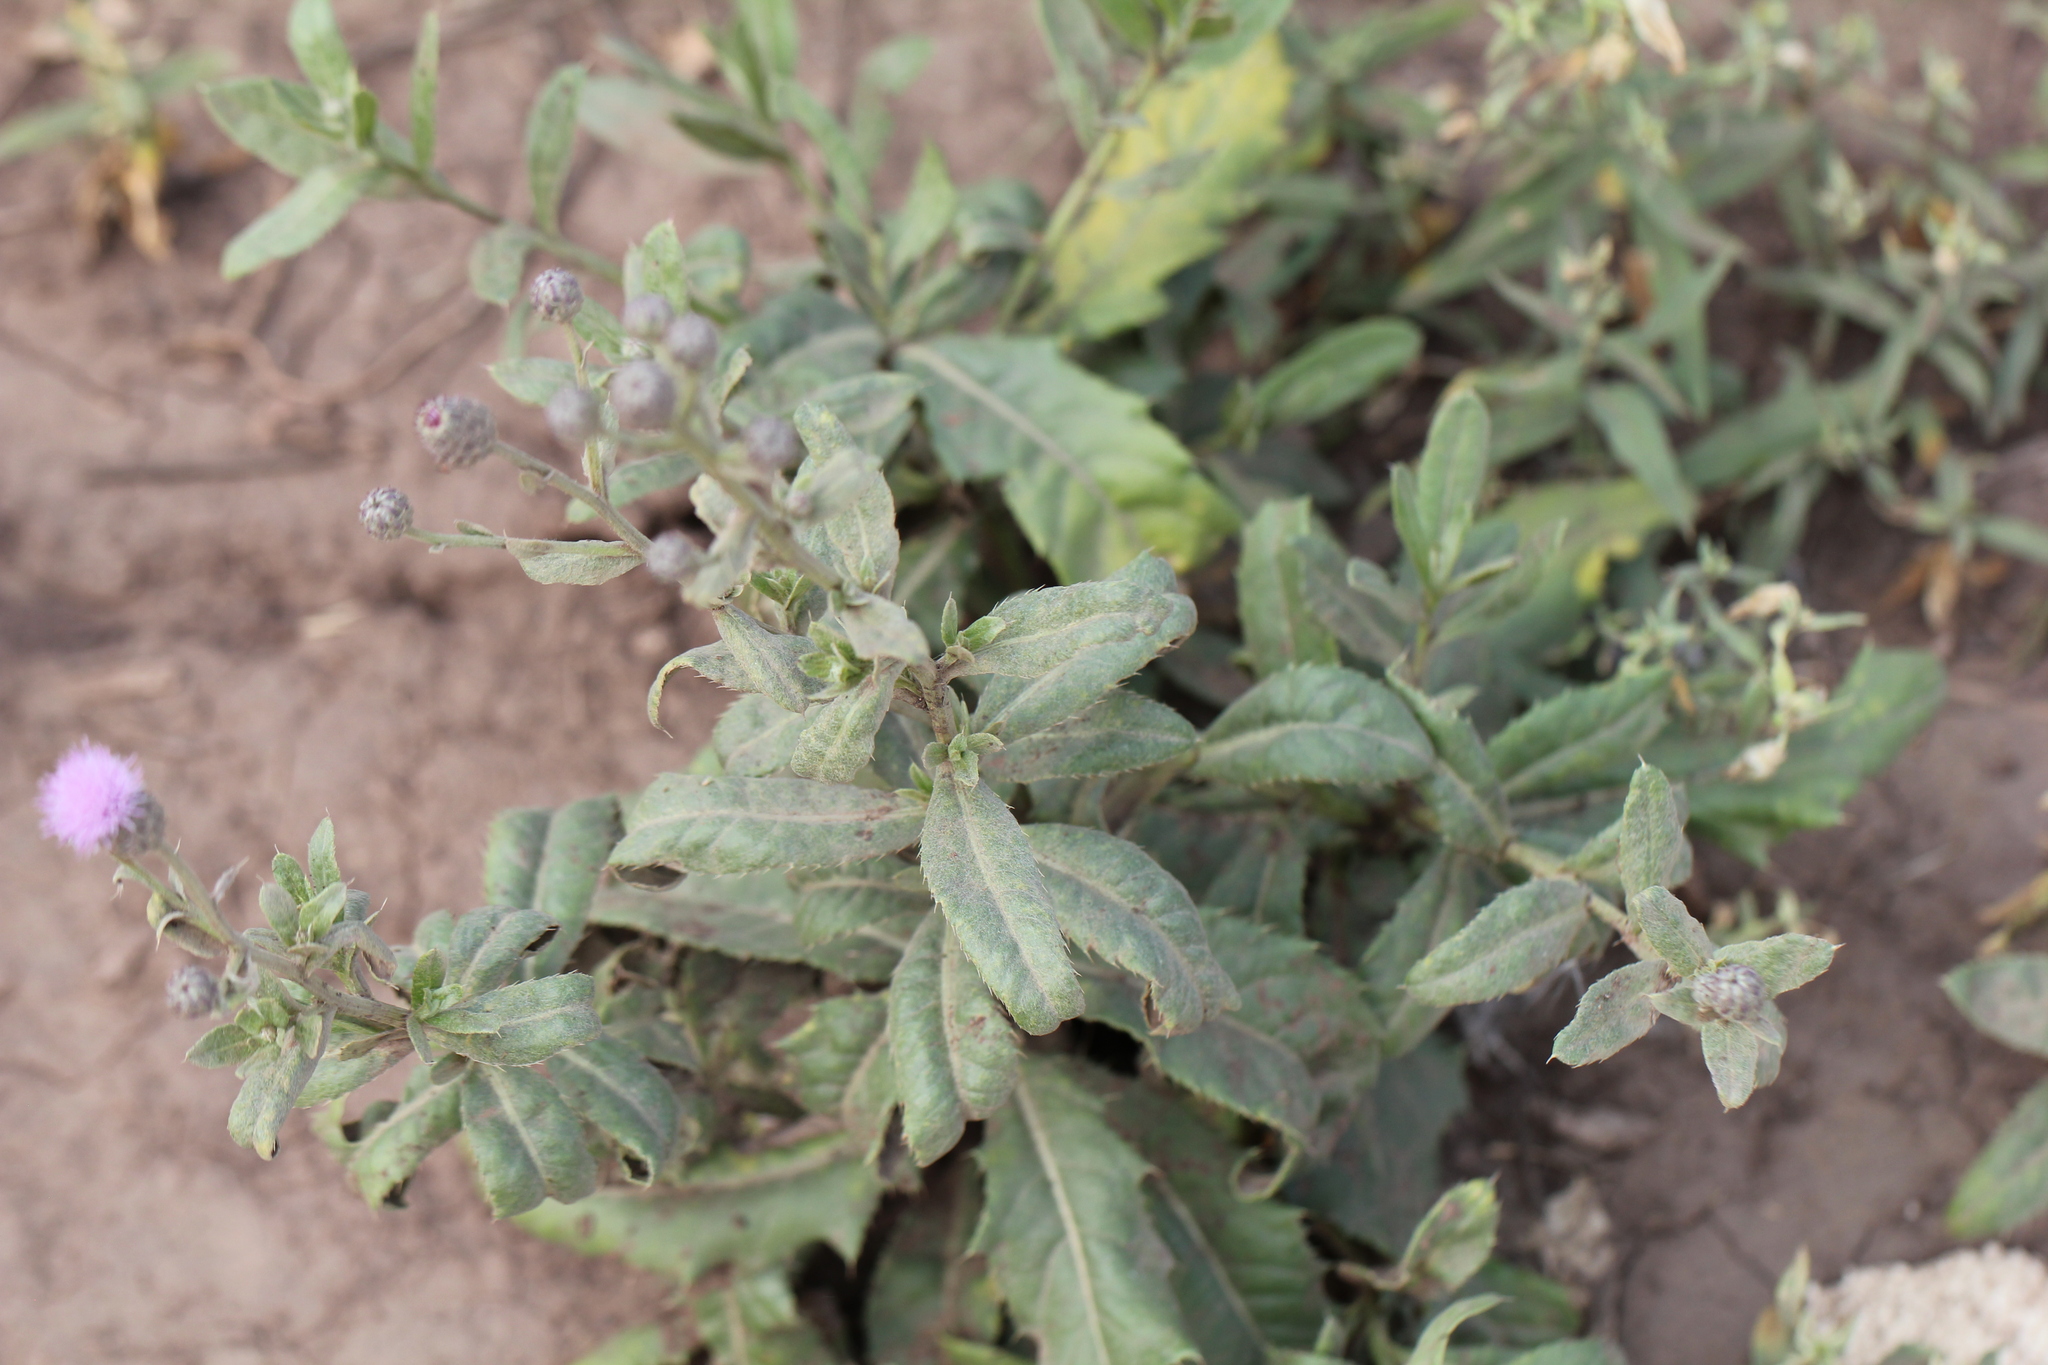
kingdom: Plantae
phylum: Tracheophyta
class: Magnoliopsida
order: Asterales
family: Asteraceae
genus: Cirsium
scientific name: Cirsium arvense
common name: Creeping thistle
